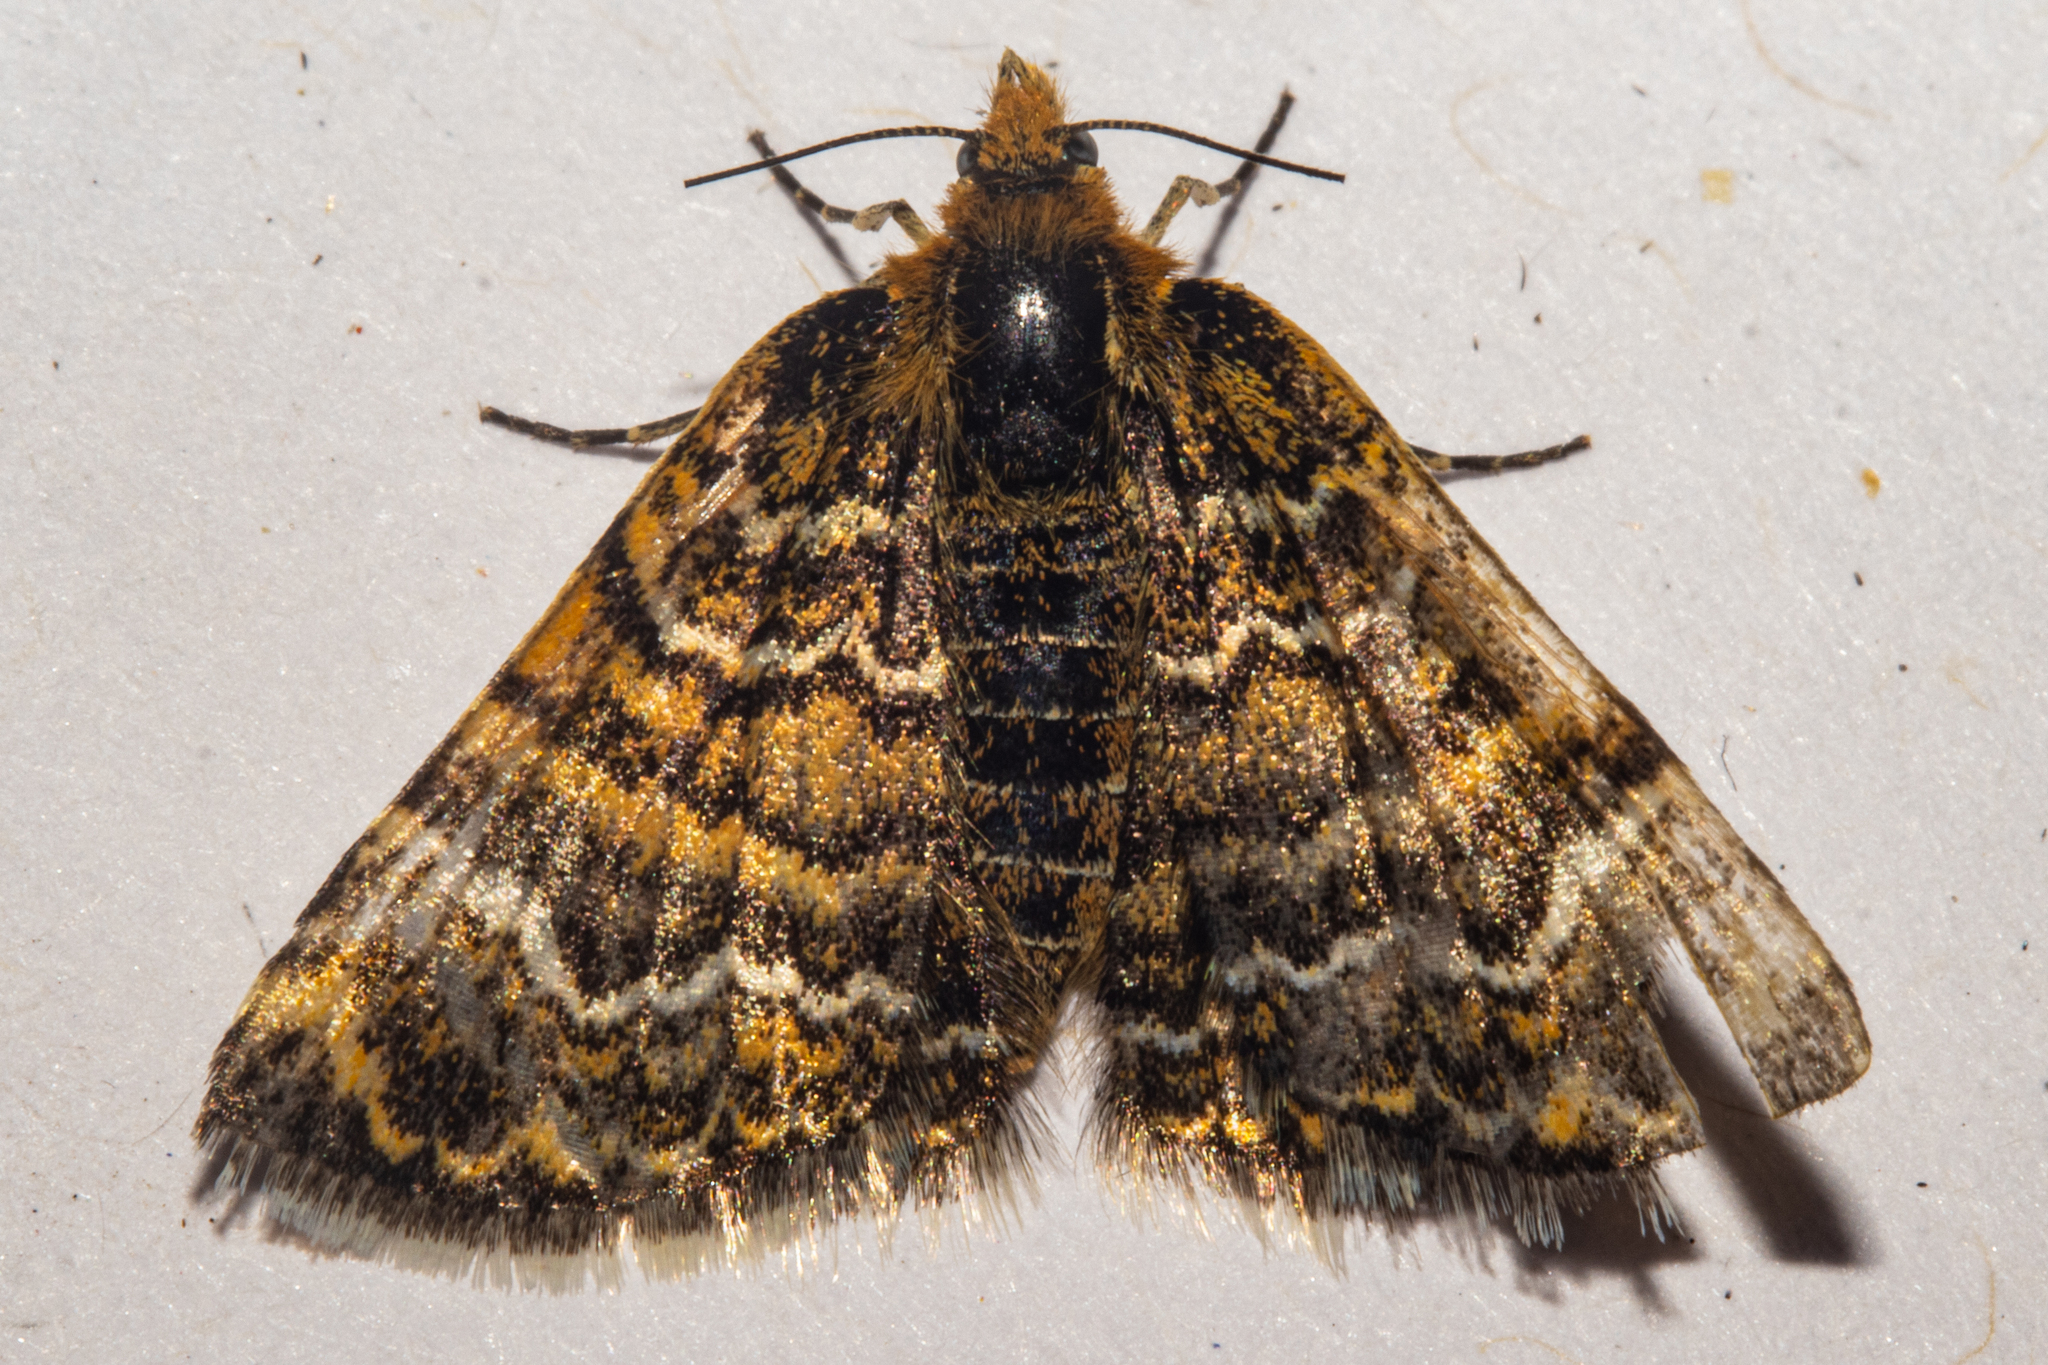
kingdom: Animalia
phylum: Arthropoda
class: Insecta
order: Lepidoptera
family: Geometridae
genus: Notoreas
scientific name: Notoreas mechanitis
